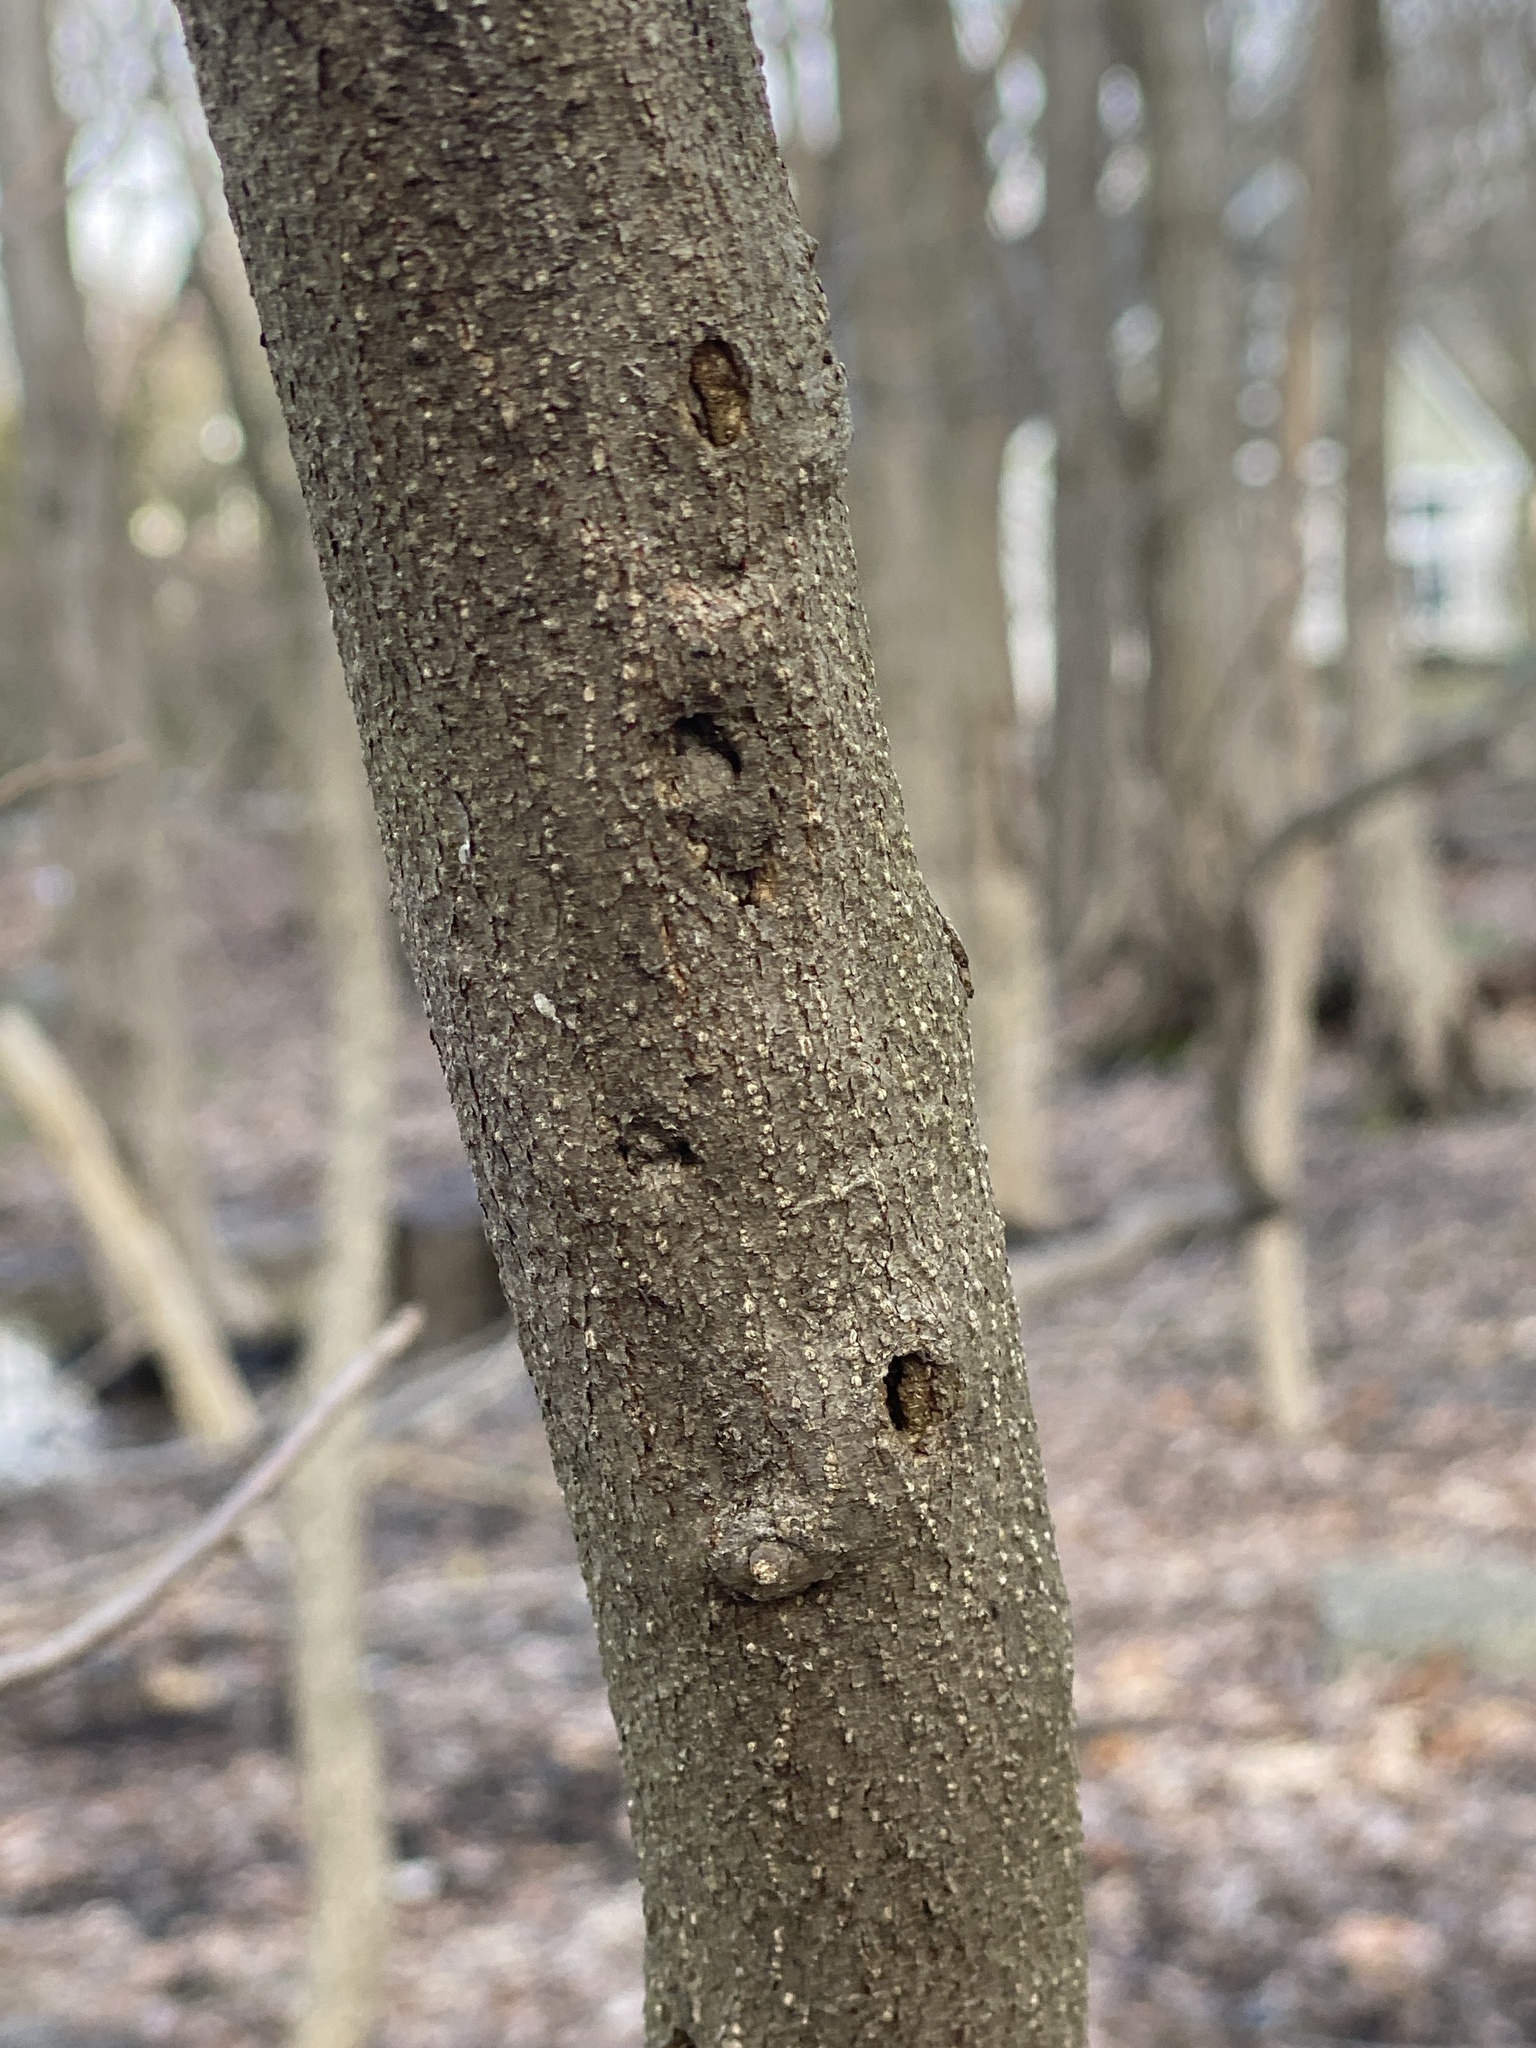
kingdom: Plantae
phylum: Tracheophyta
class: Magnoliopsida
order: Laurales
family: Lauraceae
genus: Lindera
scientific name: Lindera benzoin
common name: Spicebush
